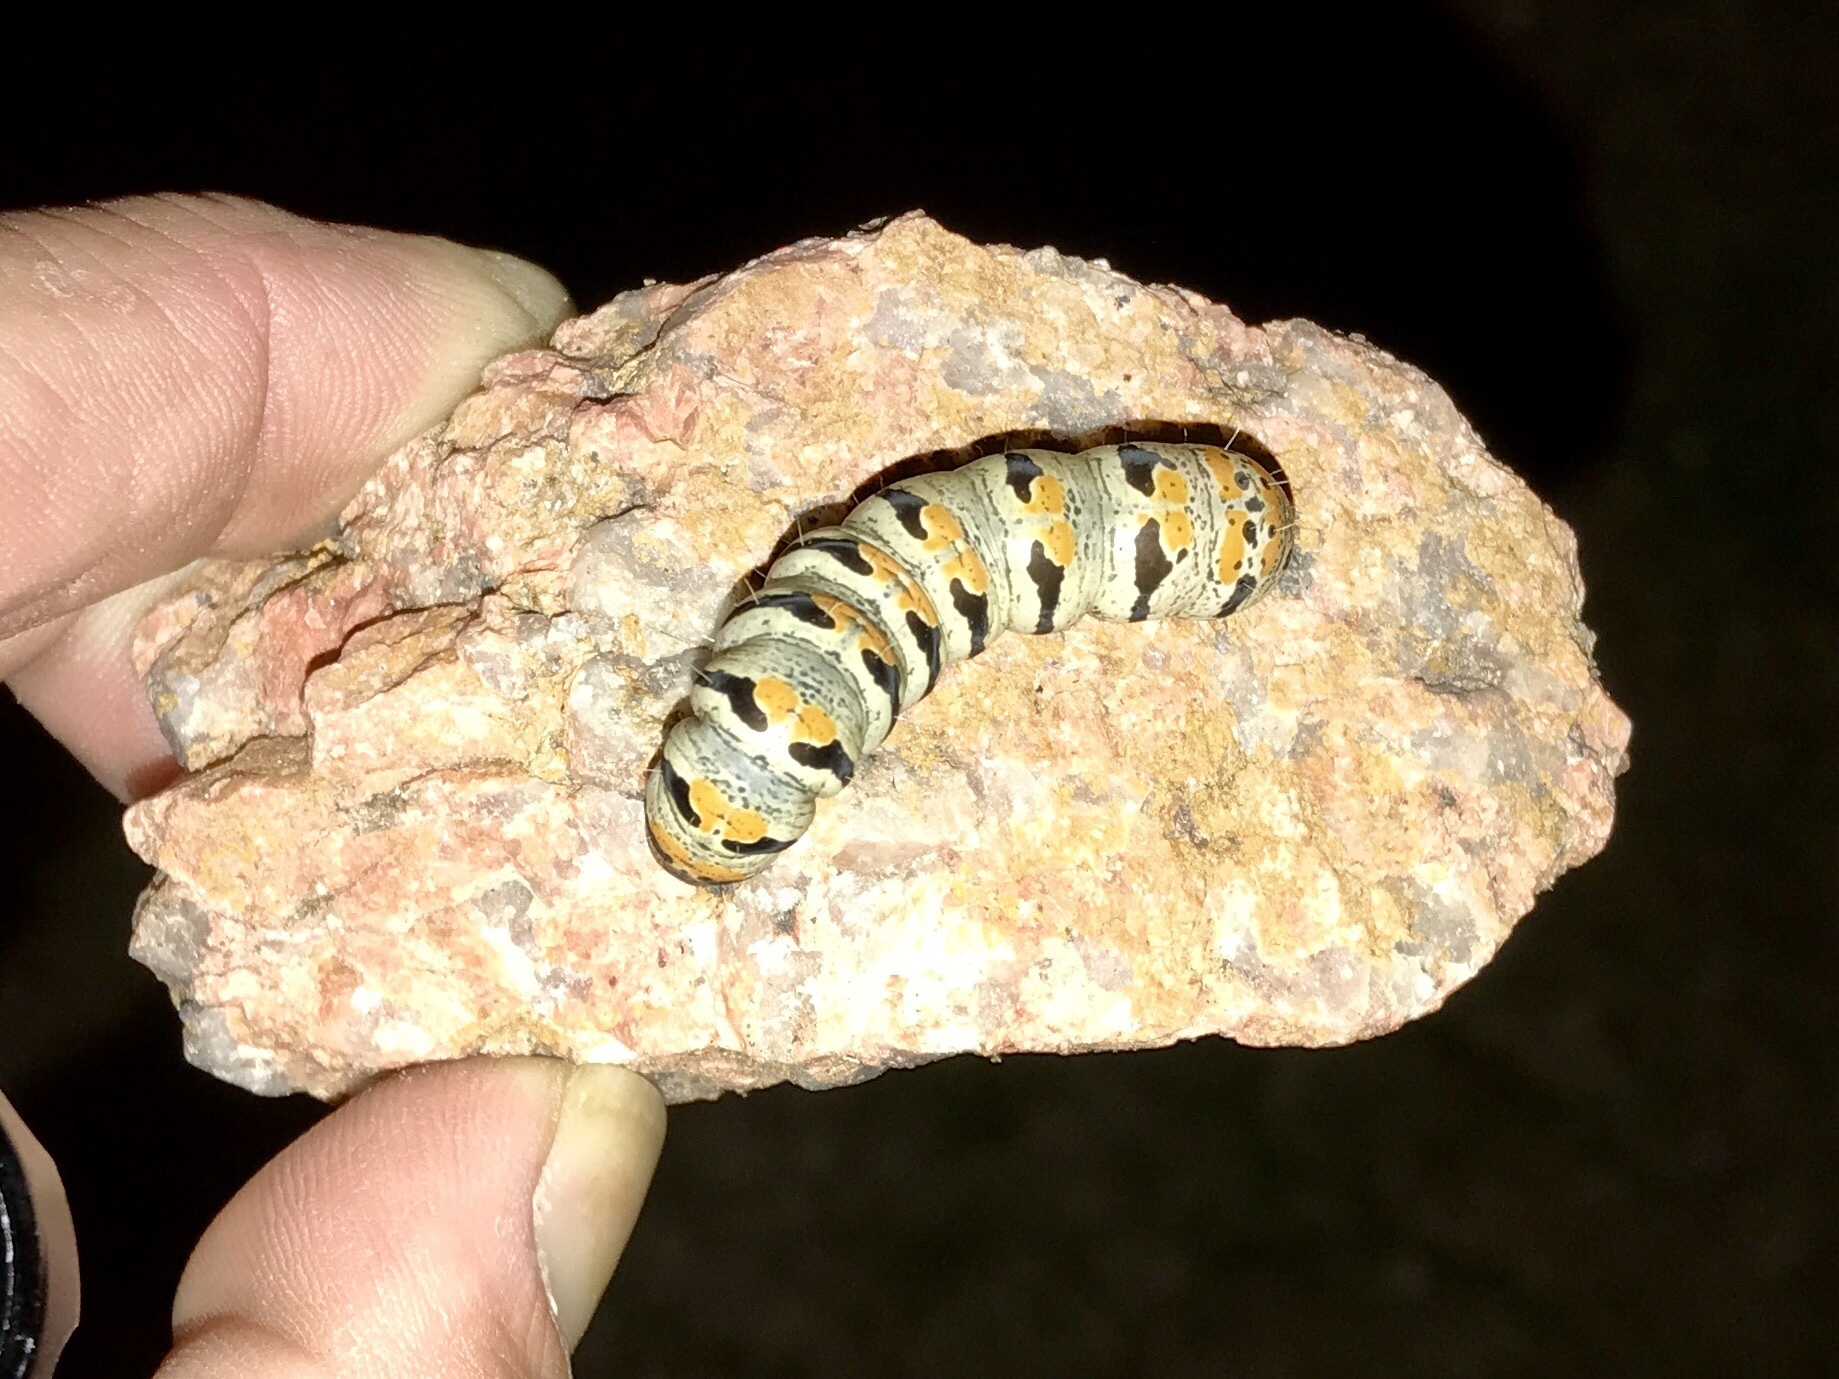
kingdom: Animalia
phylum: Arthropoda
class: Insecta
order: Lepidoptera
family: Noctuidae
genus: Euscirrhopterus
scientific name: Euscirrhopterus gloveri
